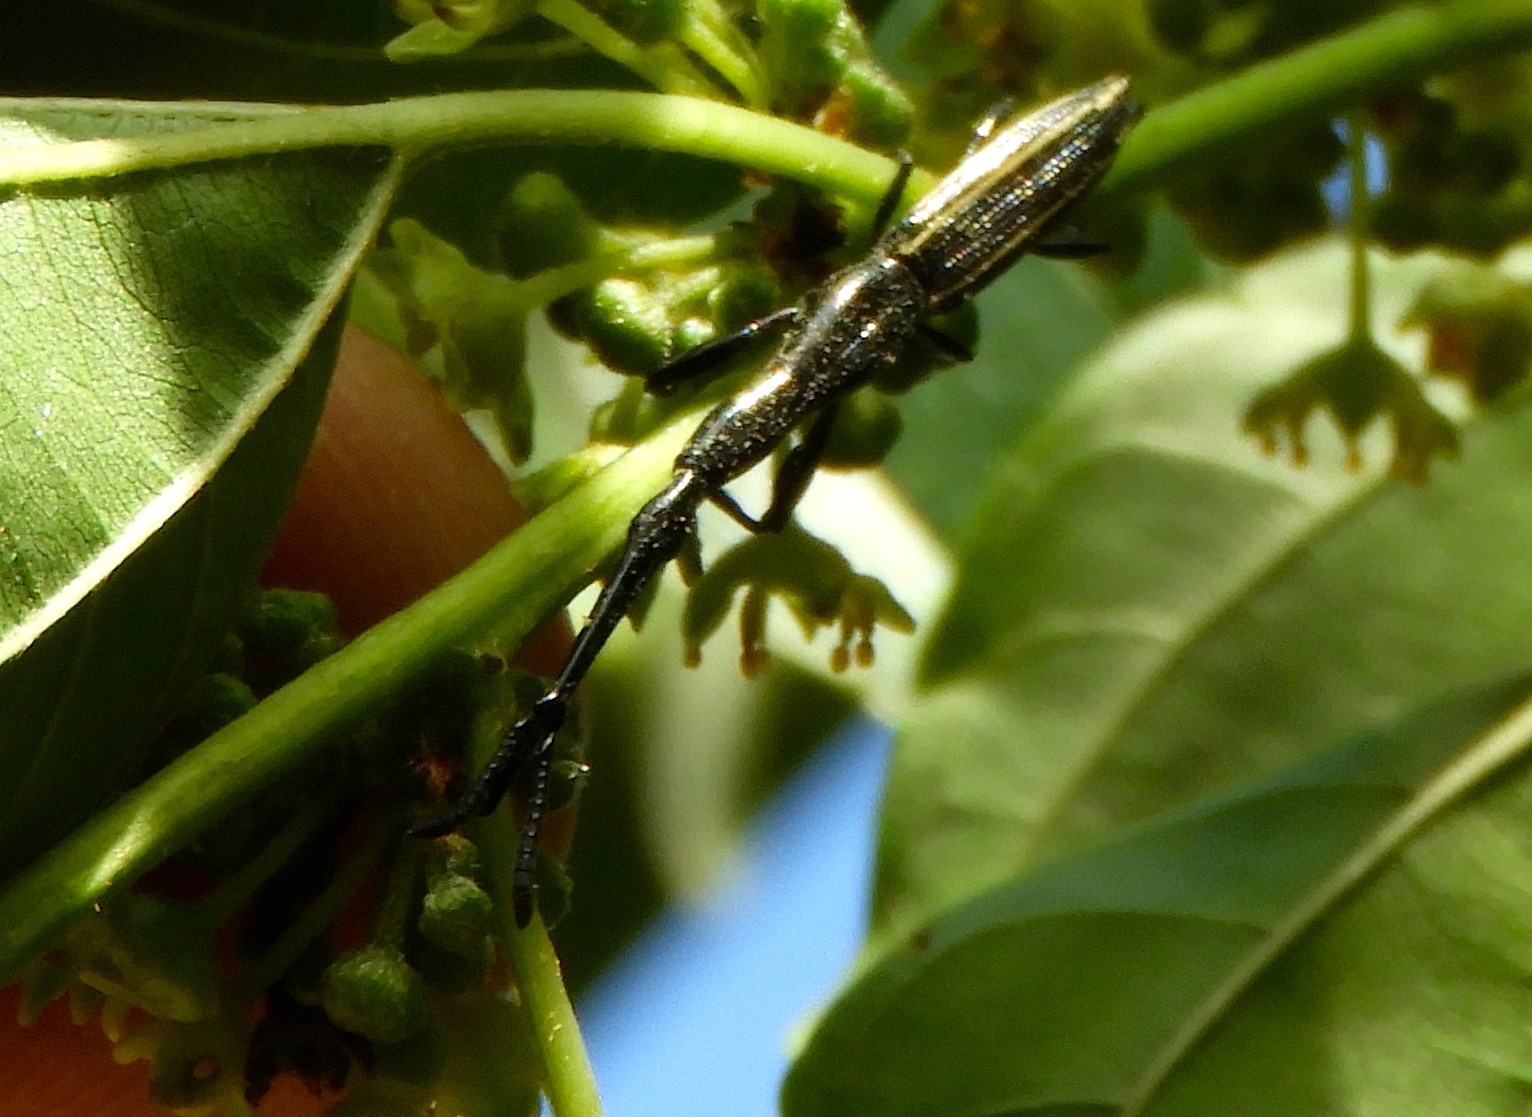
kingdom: Animalia
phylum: Arthropoda
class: Insecta
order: Coleoptera
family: Brentidae
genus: Brentus
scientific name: Brentus anchorago
